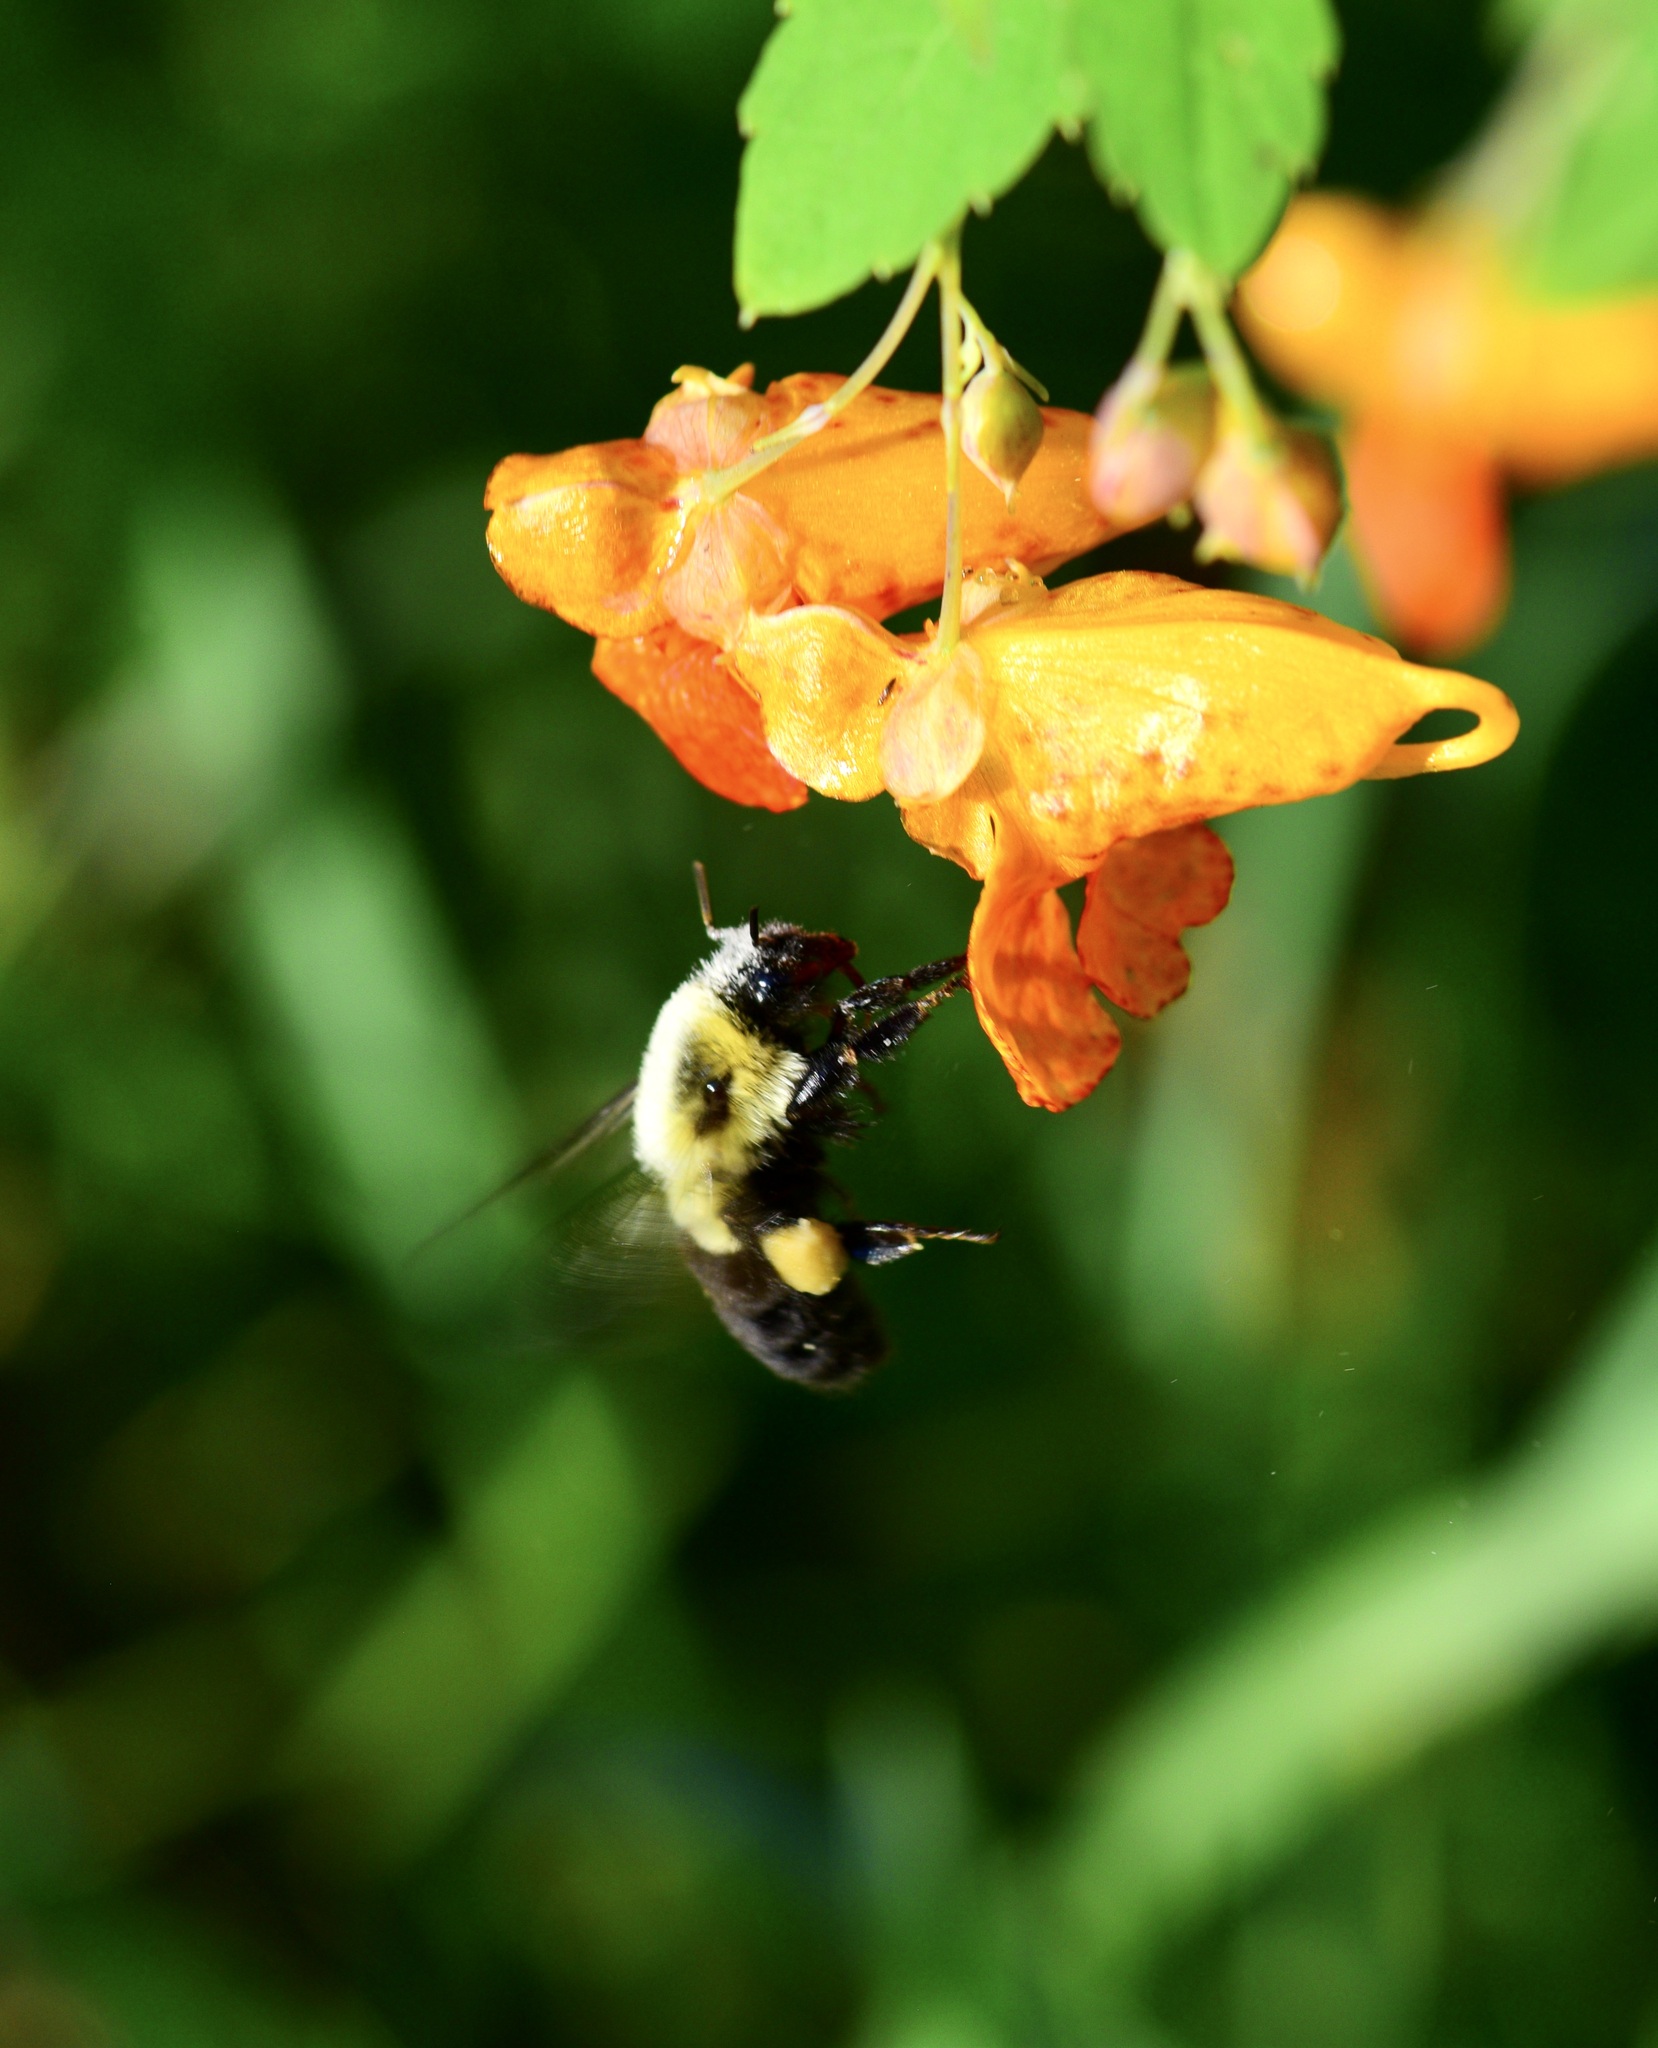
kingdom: Animalia
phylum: Arthropoda
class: Insecta
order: Hymenoptera
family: Apidae
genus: Bombus
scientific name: Bombus impatiens
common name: Common eastern bumble bee
